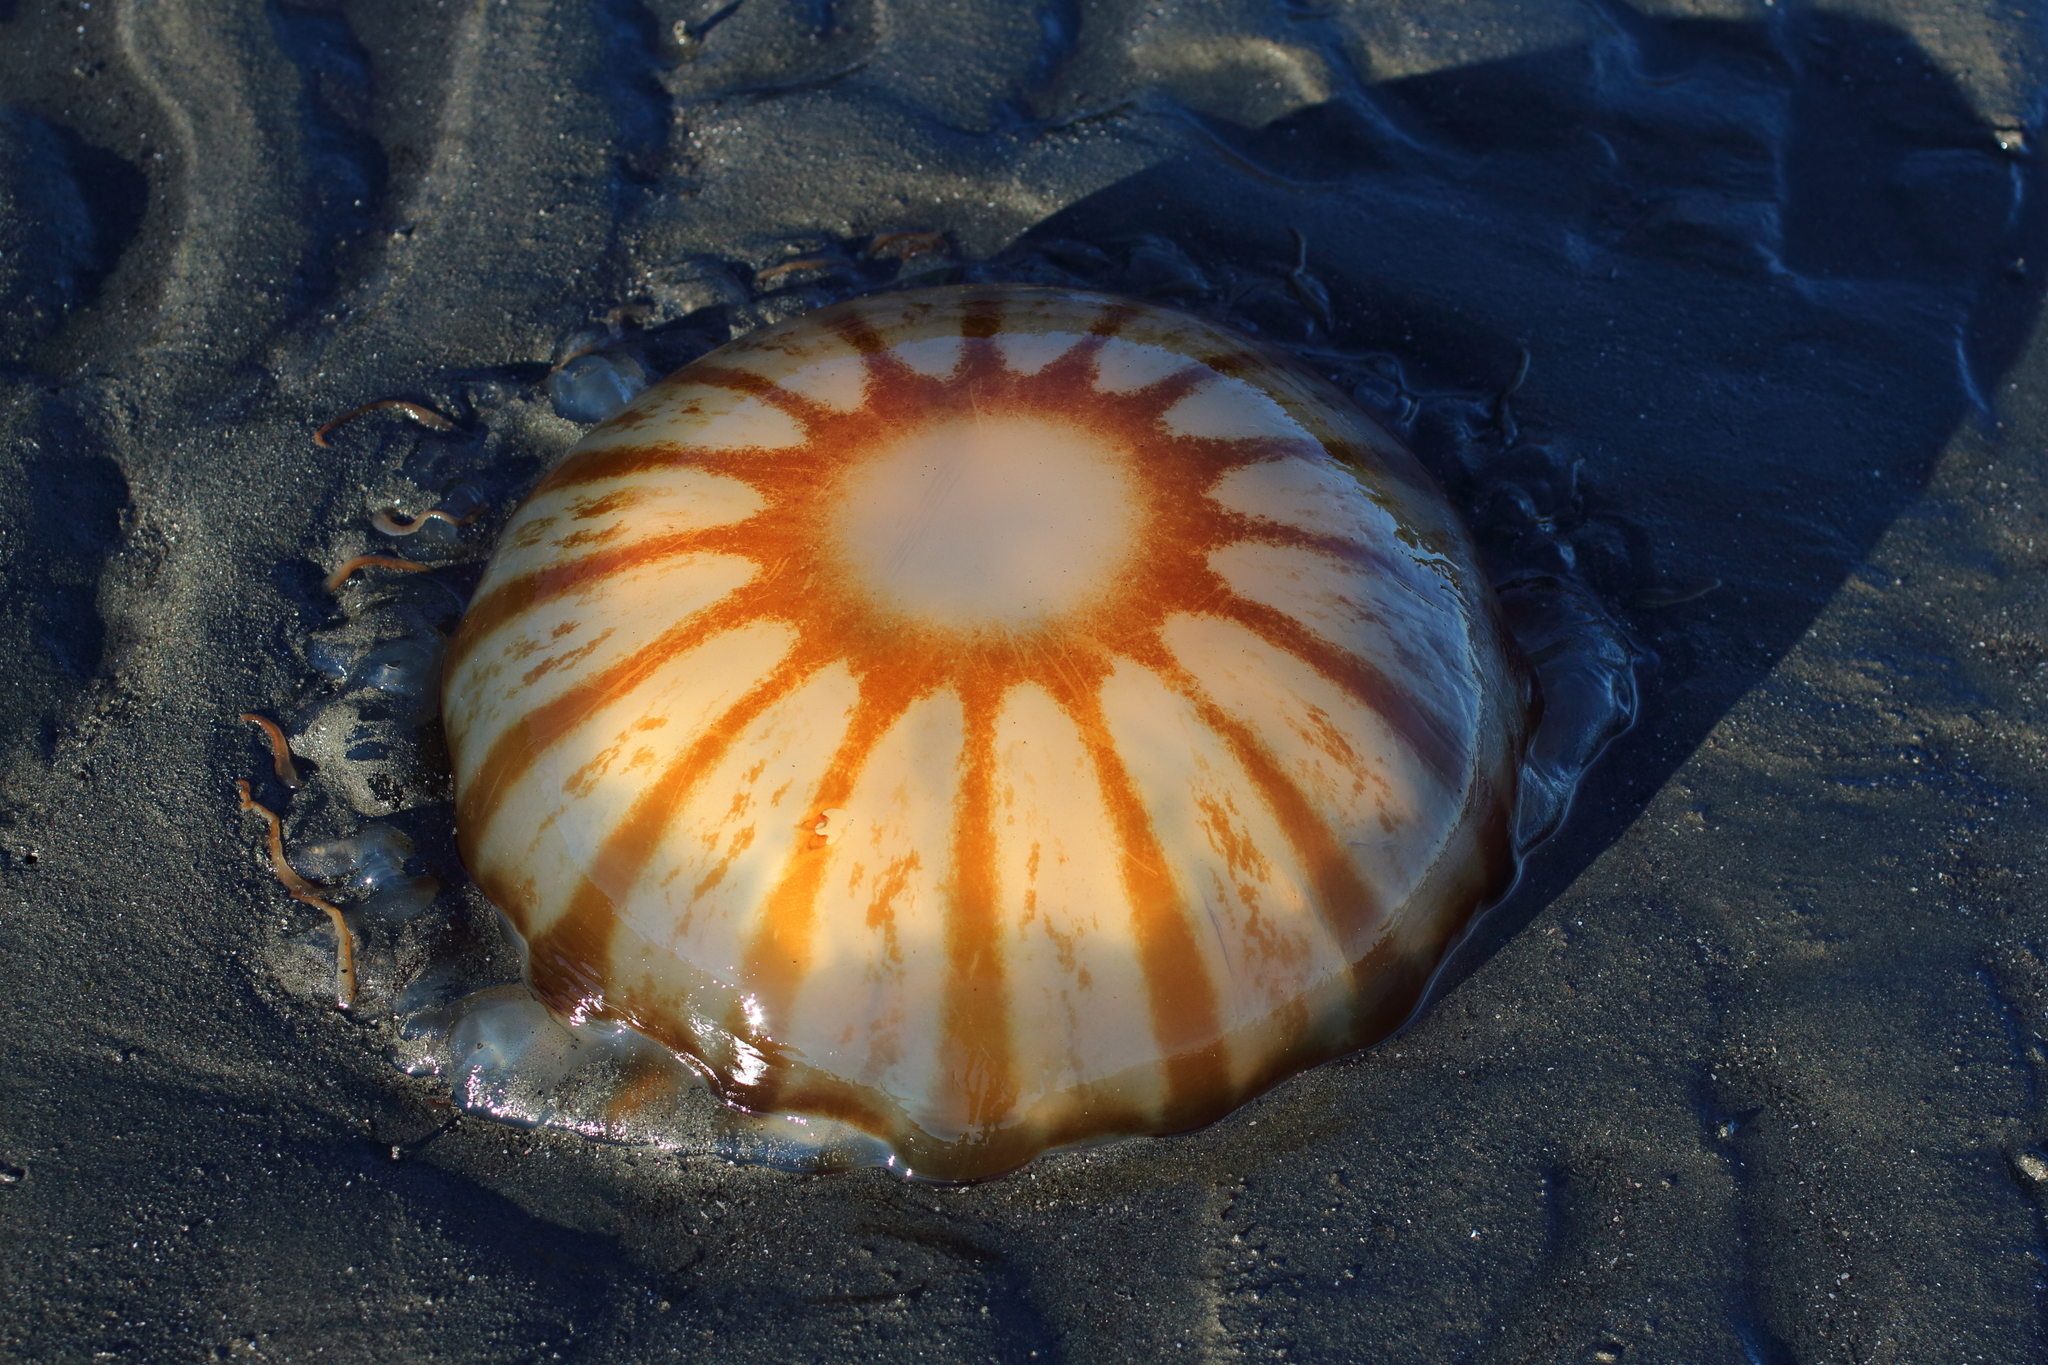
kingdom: Animalia
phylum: Cnidaria
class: Scyphozoa
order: Semaeostomeae
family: Pelagiidae
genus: Chrysaora
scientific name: Chrysaora melanaster
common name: Northern sea nettle
